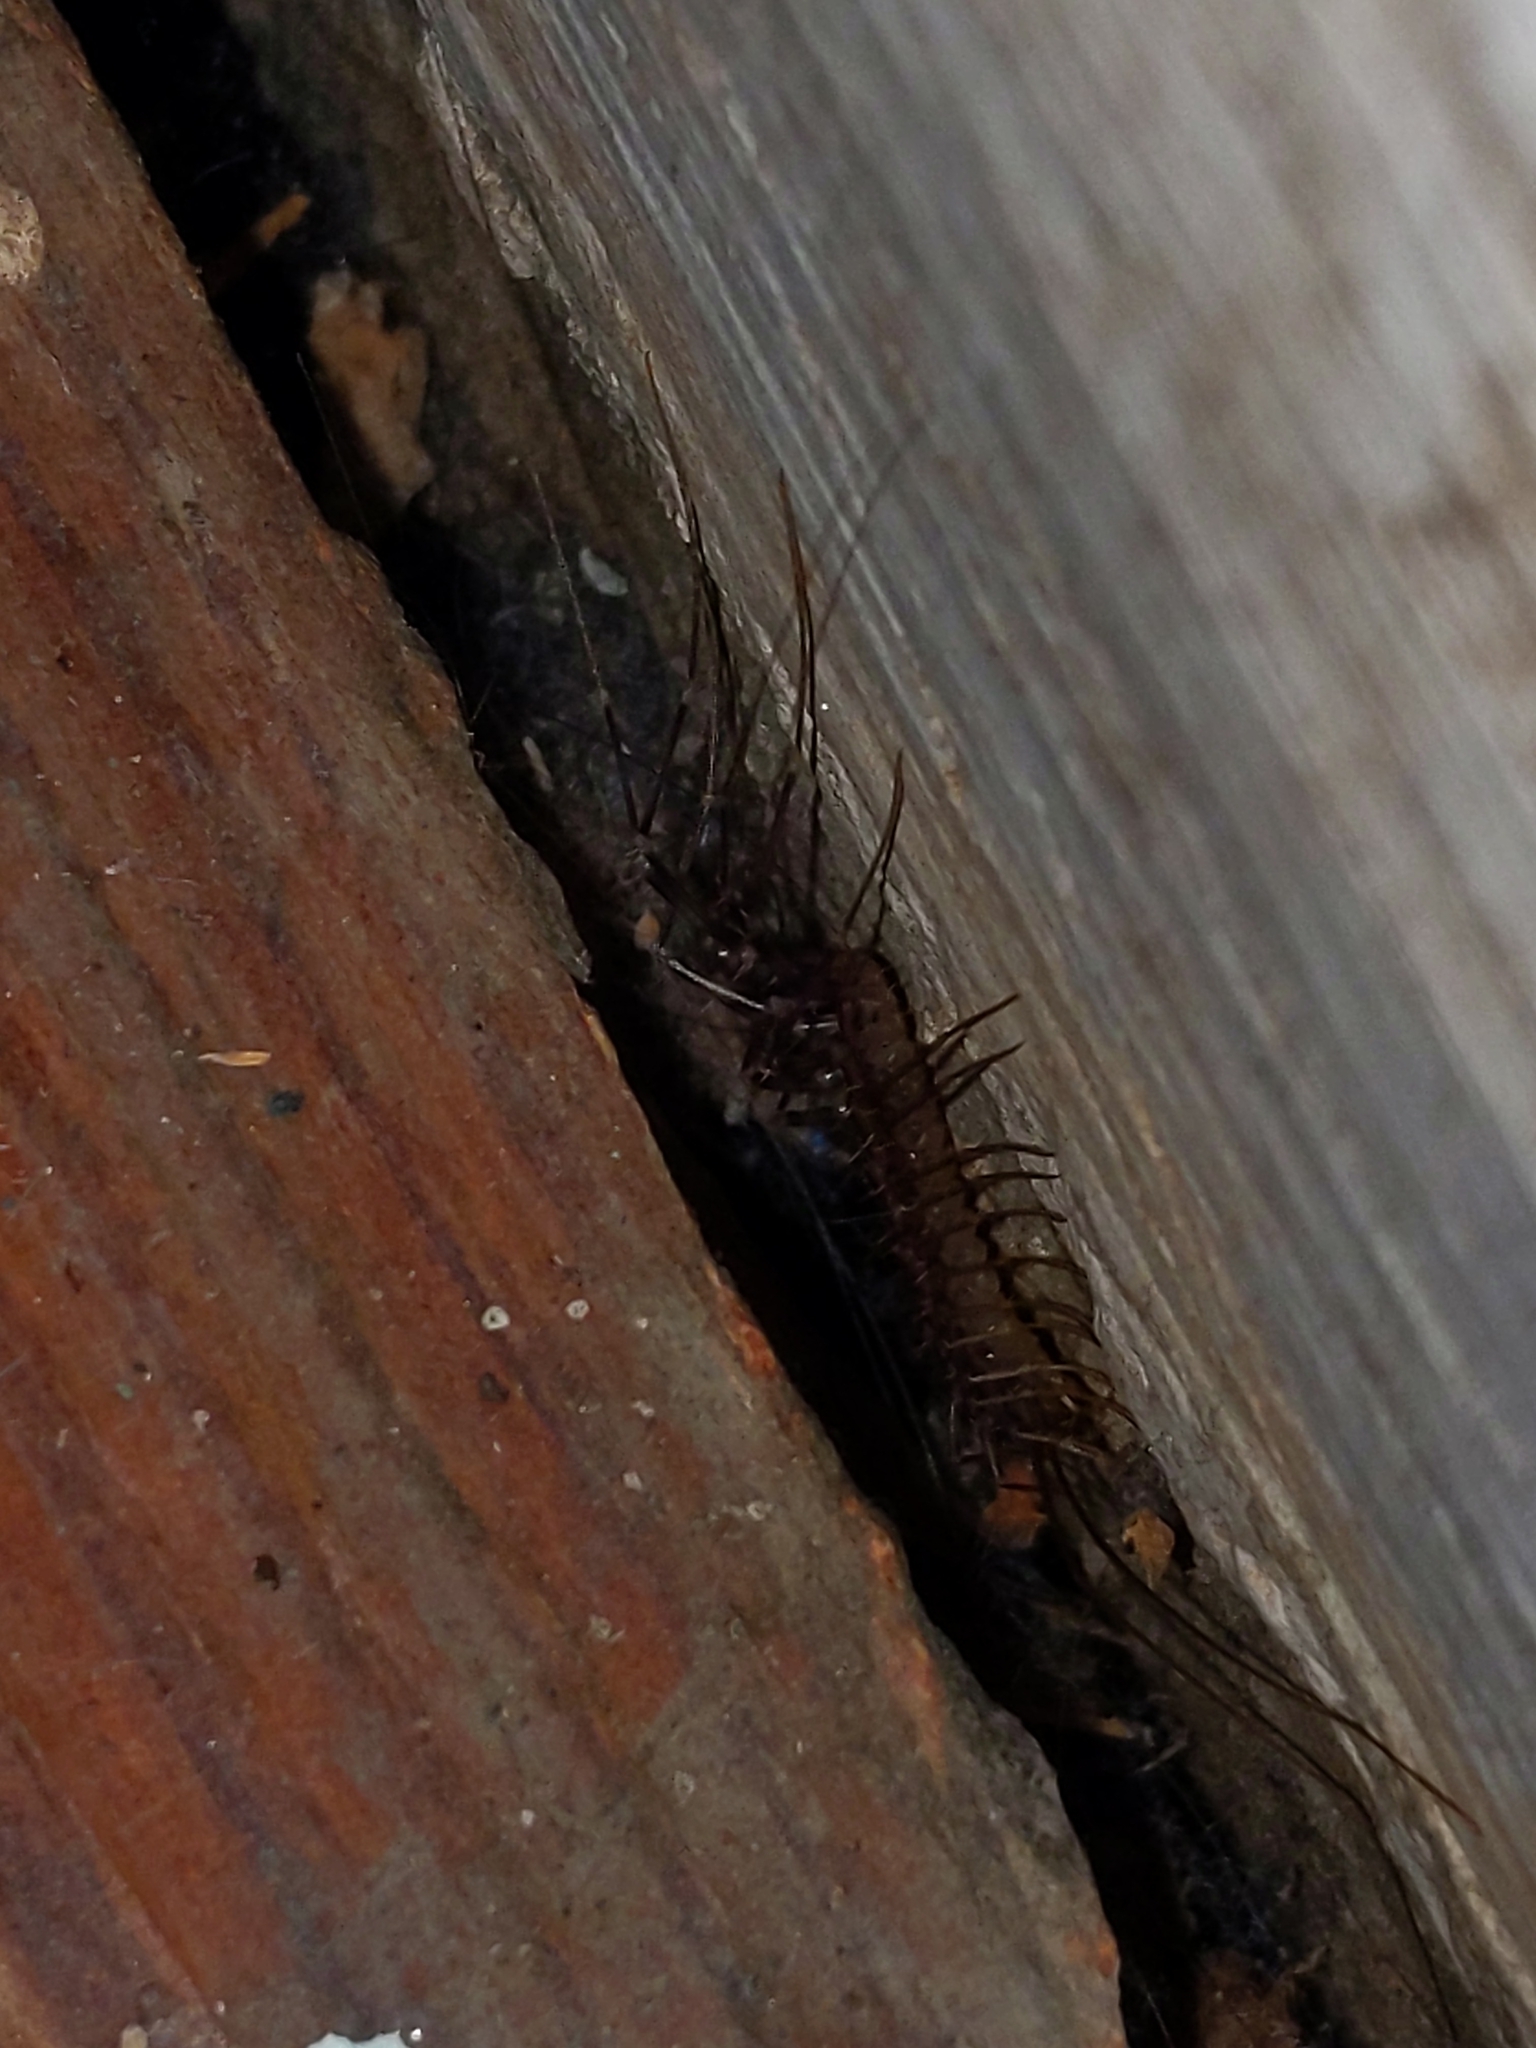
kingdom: Animalia
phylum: Arthropoda
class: Chilopoda
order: Scutigeromorpha
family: Scutigeridae
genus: Scutigera
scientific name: Scutigera coleoptrata
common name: House centipede
